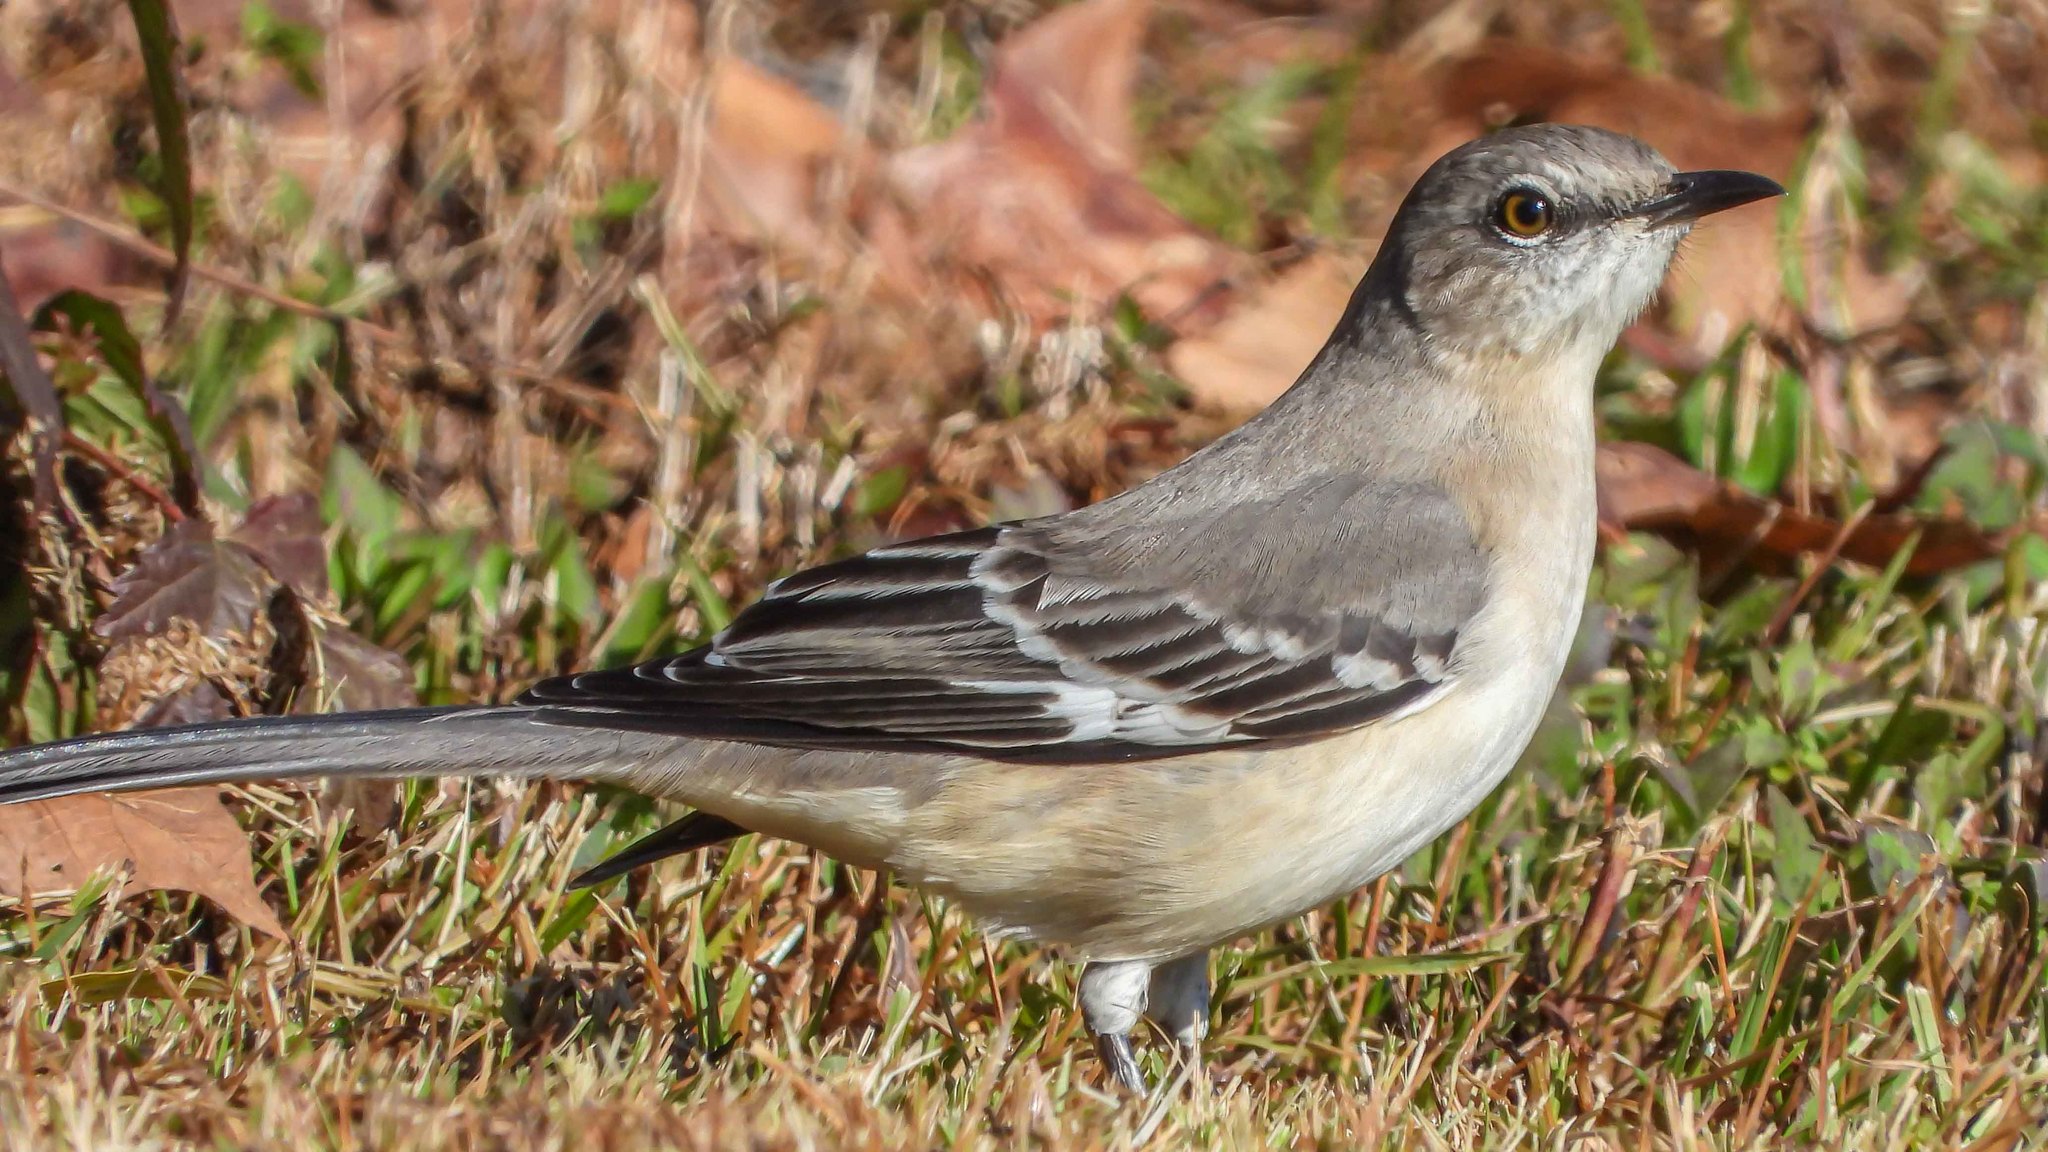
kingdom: Animalia
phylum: Chordata
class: Aves
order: Passeriformes
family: Mimidae
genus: Mimus
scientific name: Mimus polyglottos
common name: Northern mockingbird
